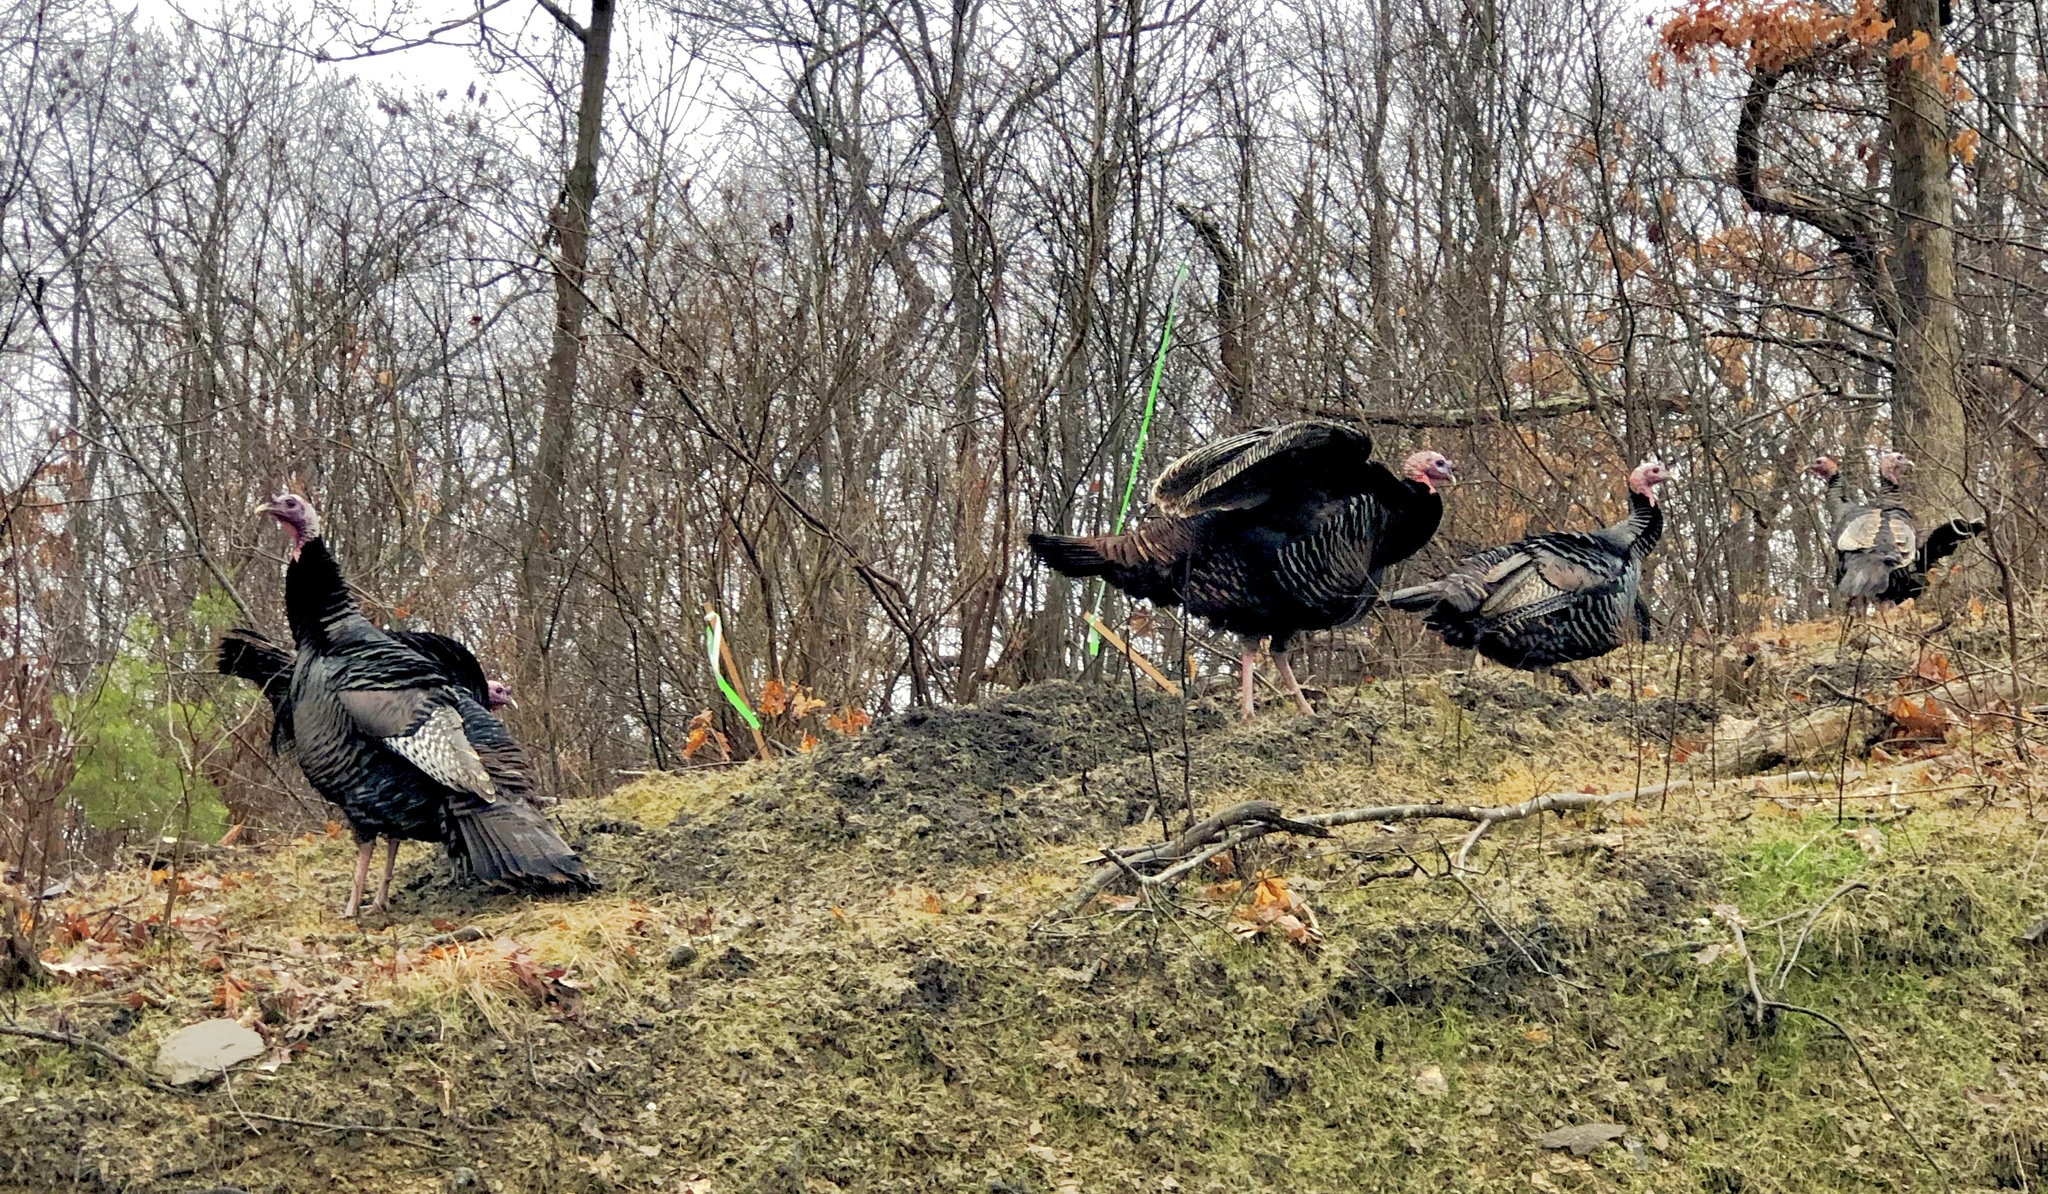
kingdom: Animalia
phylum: Chordata
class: Aves
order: Galliformes
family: Phasianidae
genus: Meleagris
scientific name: Meleagris gallopavo
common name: Wild turkey
